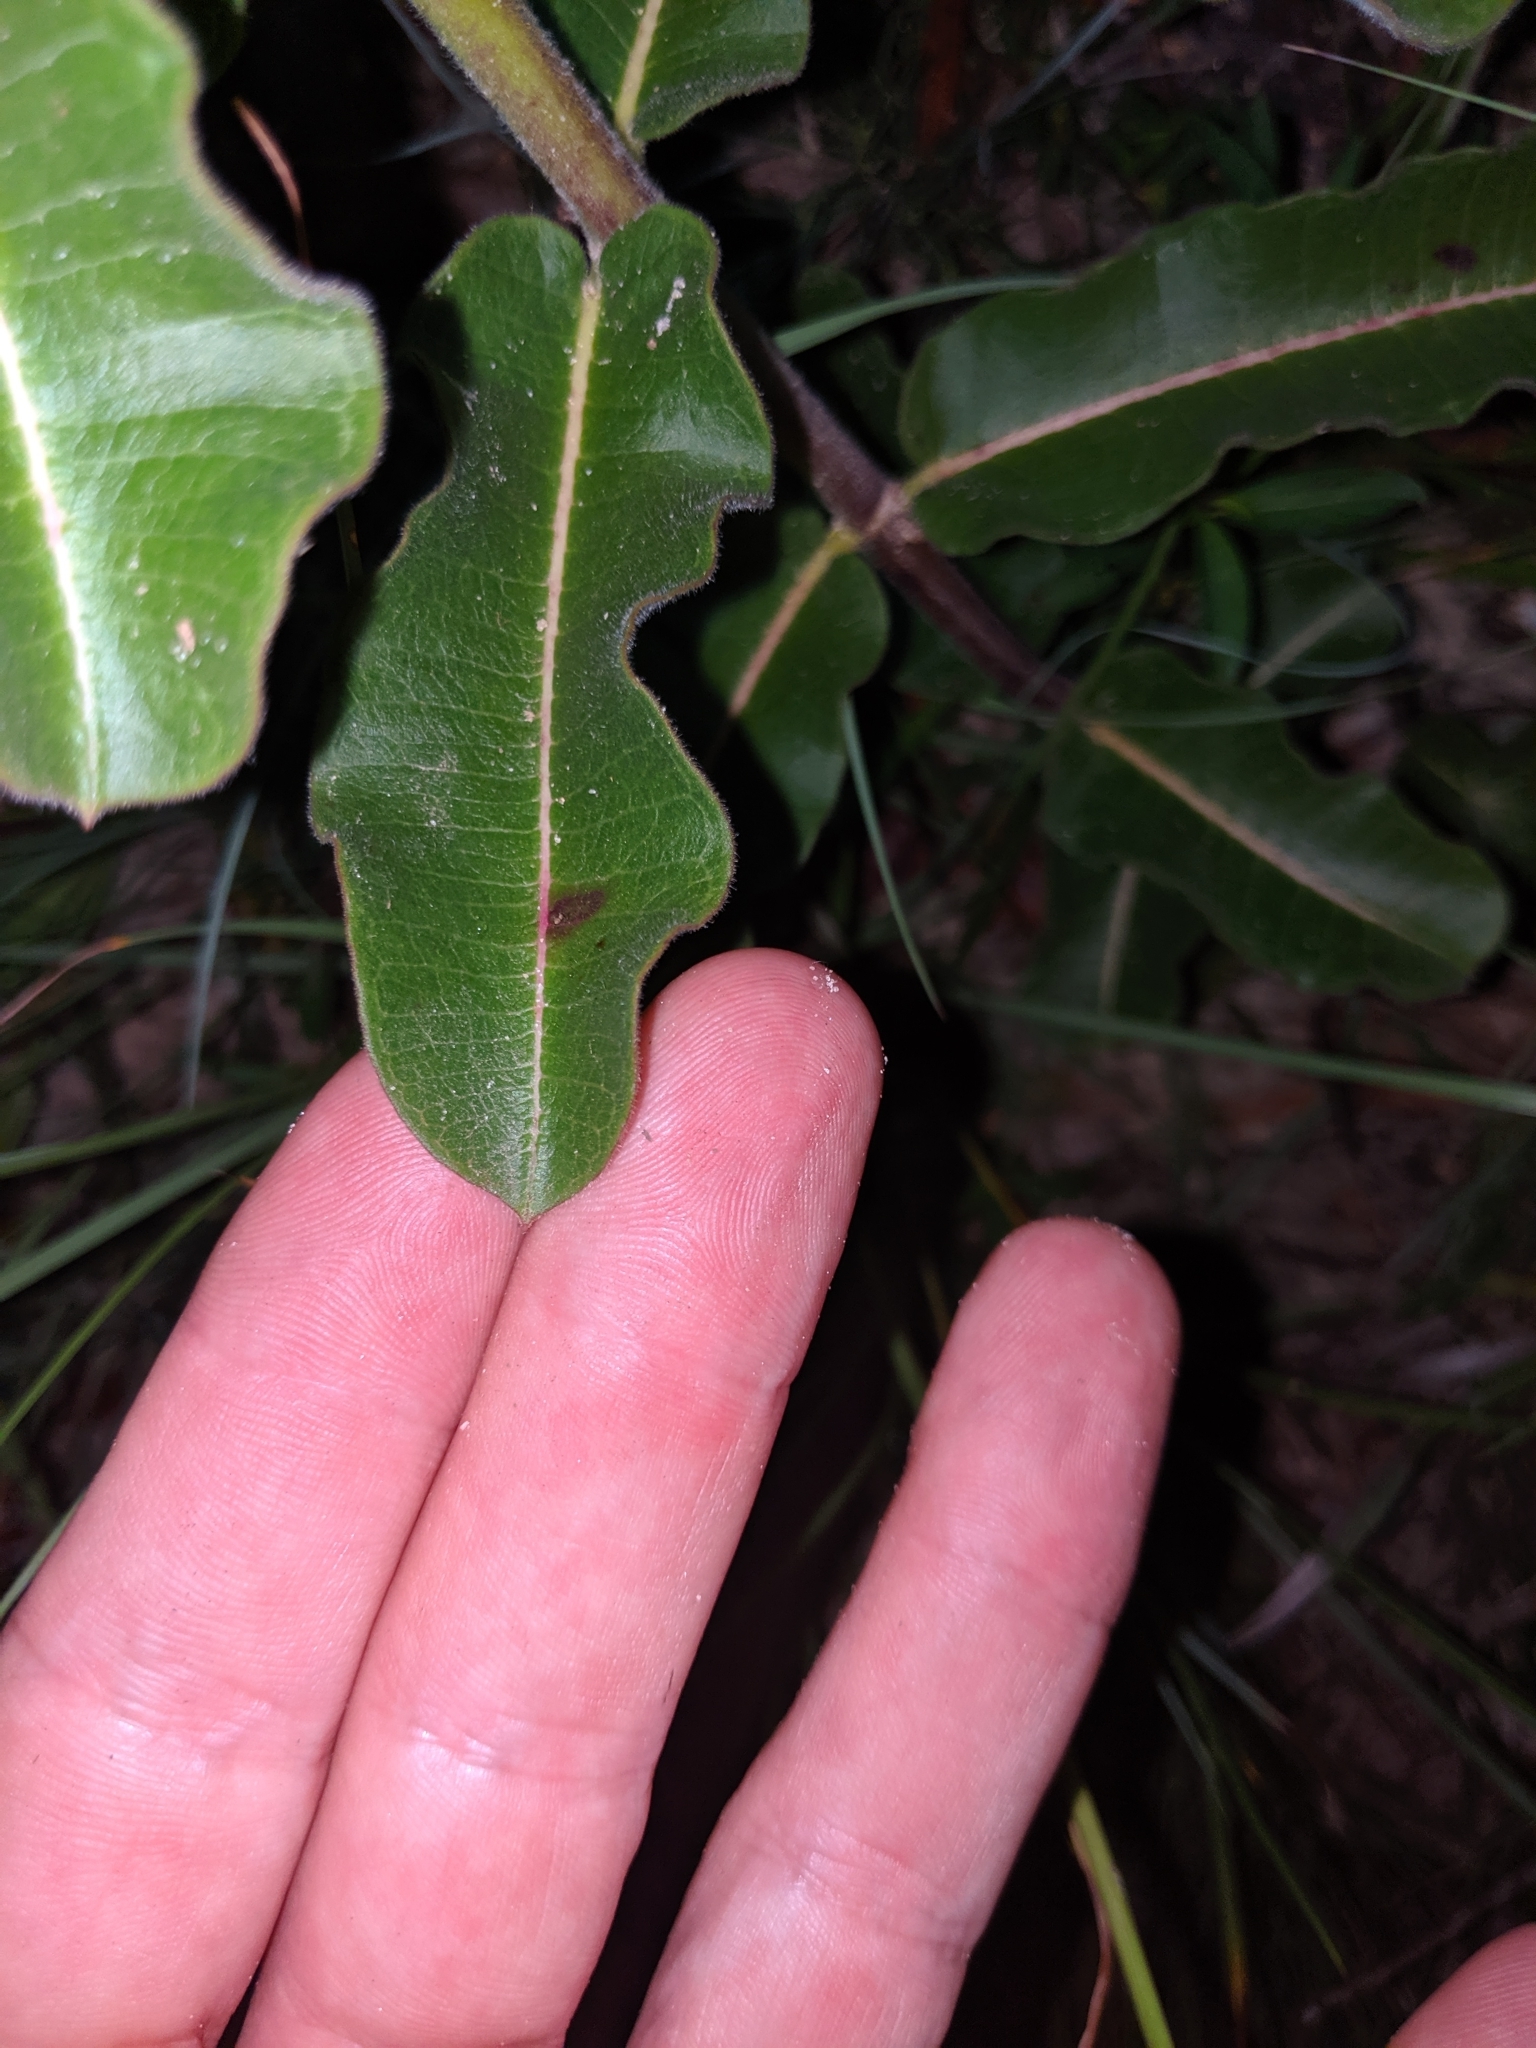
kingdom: Plantae
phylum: Tracheophyta
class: Magnoliopsida
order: Gentianales
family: Apocynaceae
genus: Asclepias
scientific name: Asclepias obovata
